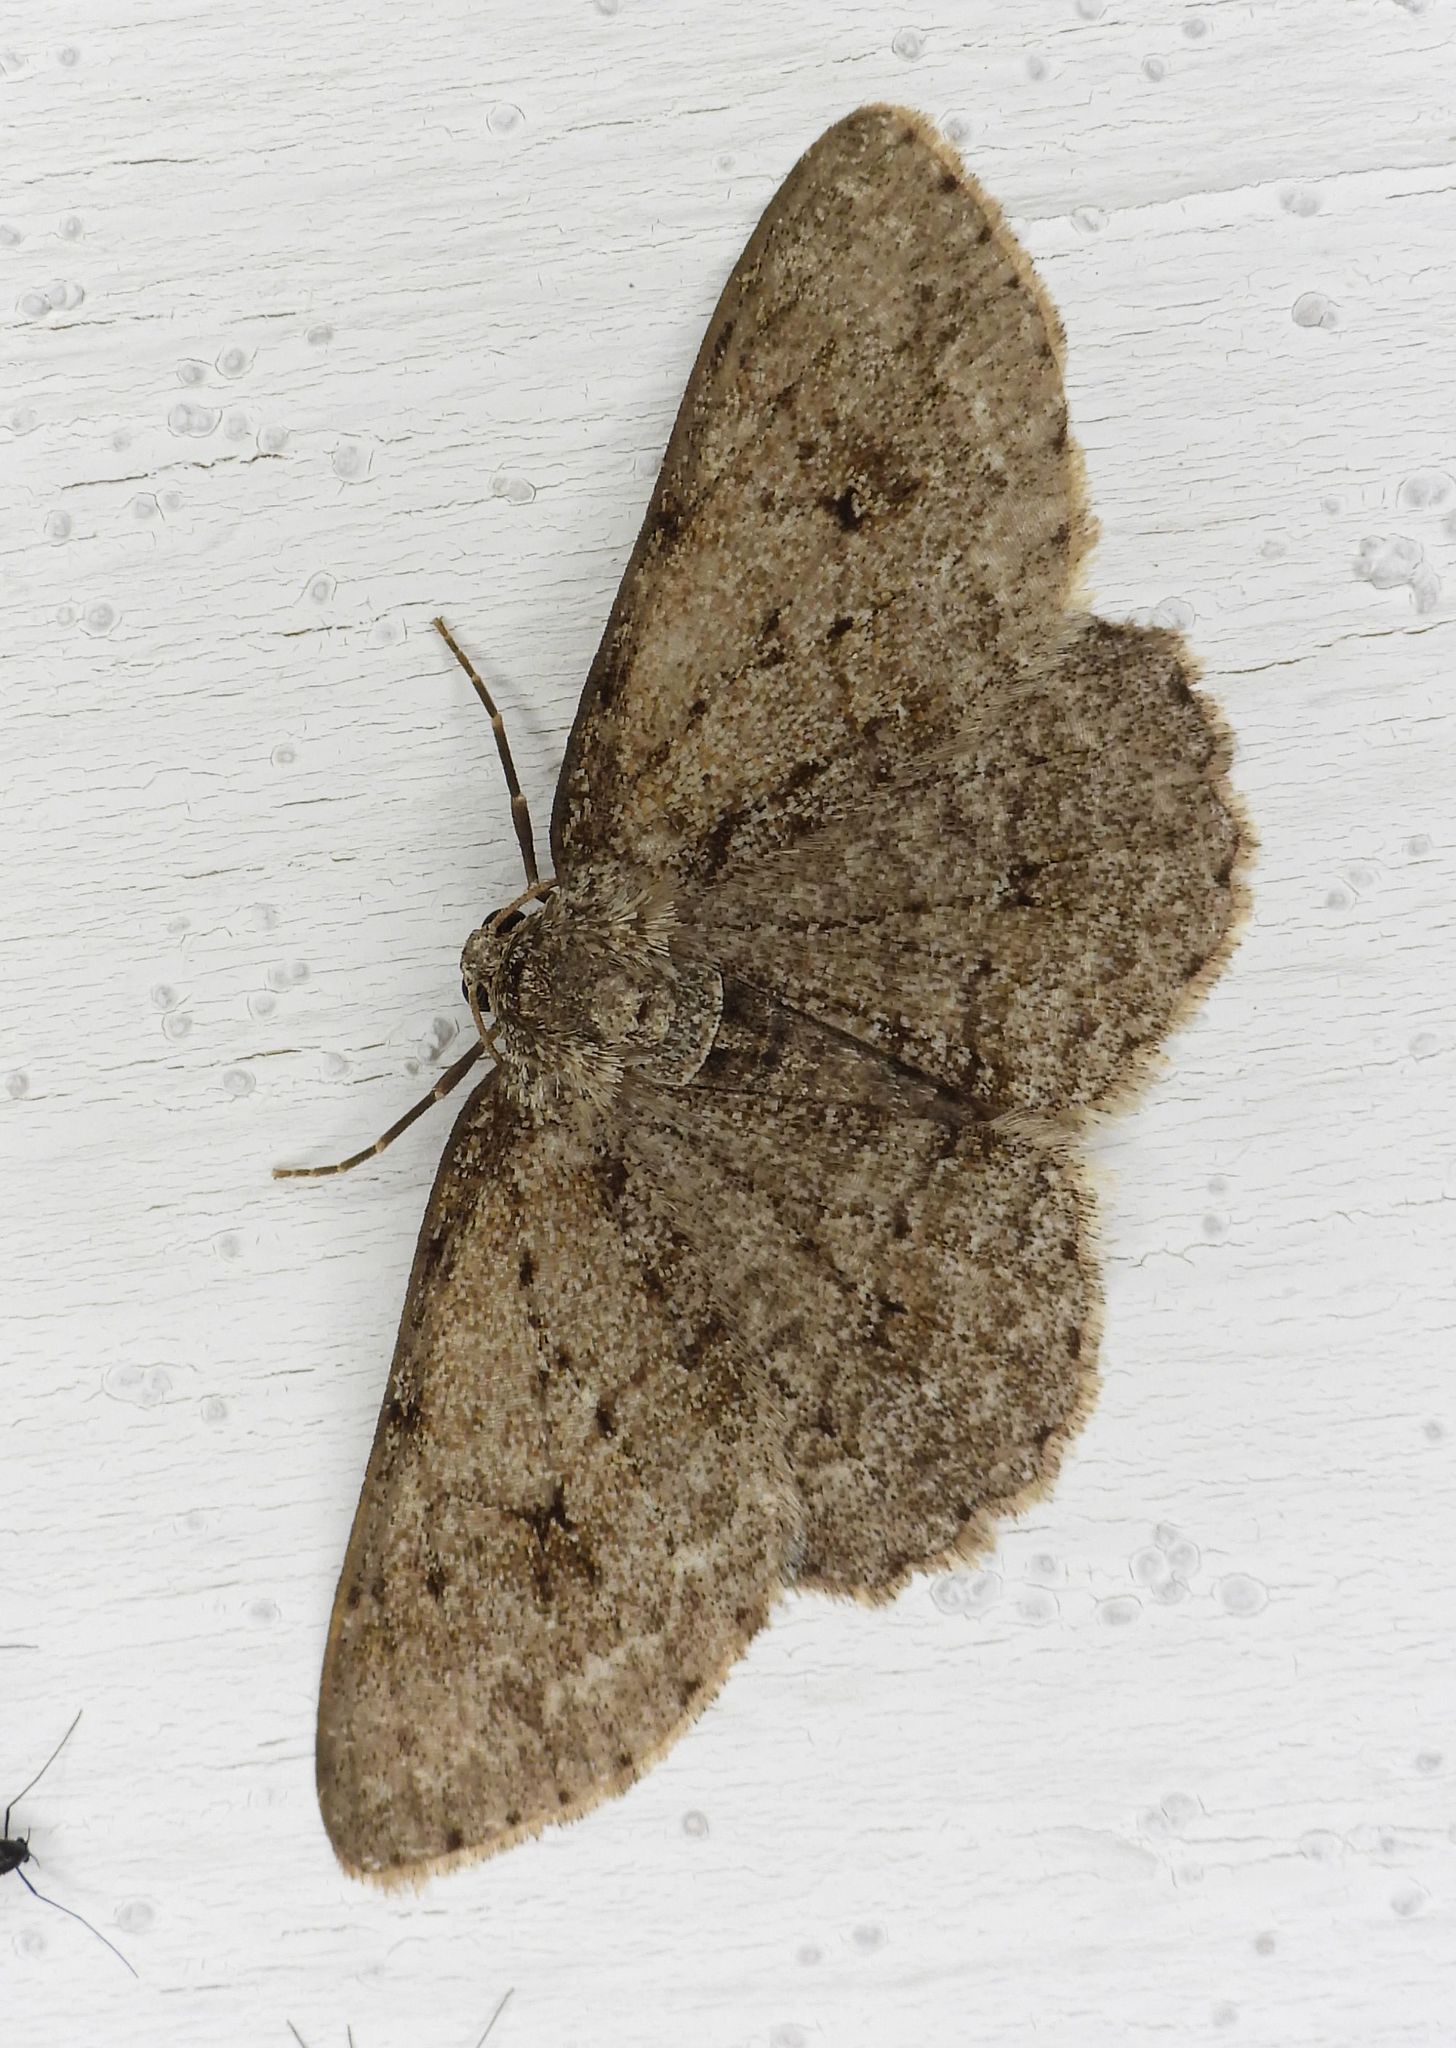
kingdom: Animalia
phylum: Arthropoda
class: Insecta
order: Lepidoptera
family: Geometridae
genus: Ectropis
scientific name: Ectropis crepuscularia
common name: Engrailed
